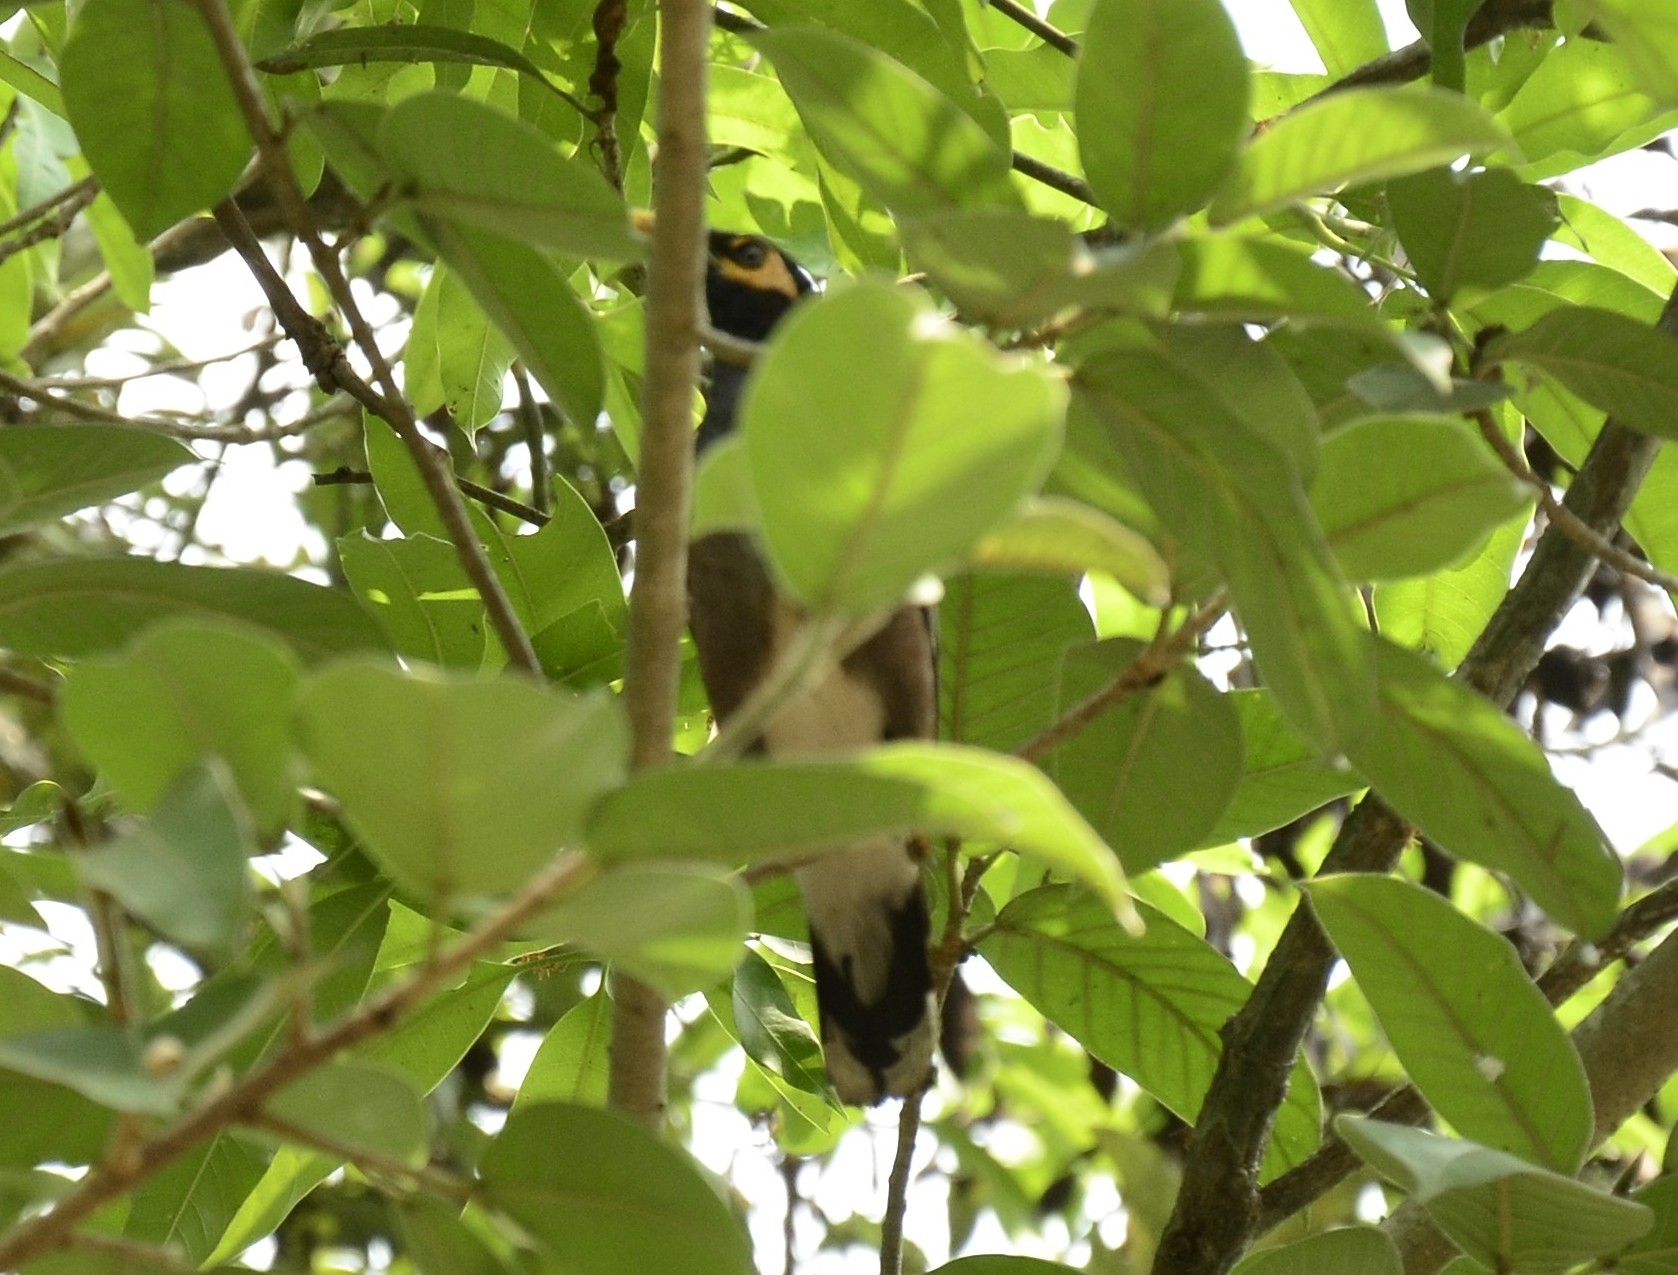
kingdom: Animalia
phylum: Chordata
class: Aves
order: Passeriformes
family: Sturnidae
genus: Acridotheres
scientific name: Acridotheres tristis
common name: Common myna
